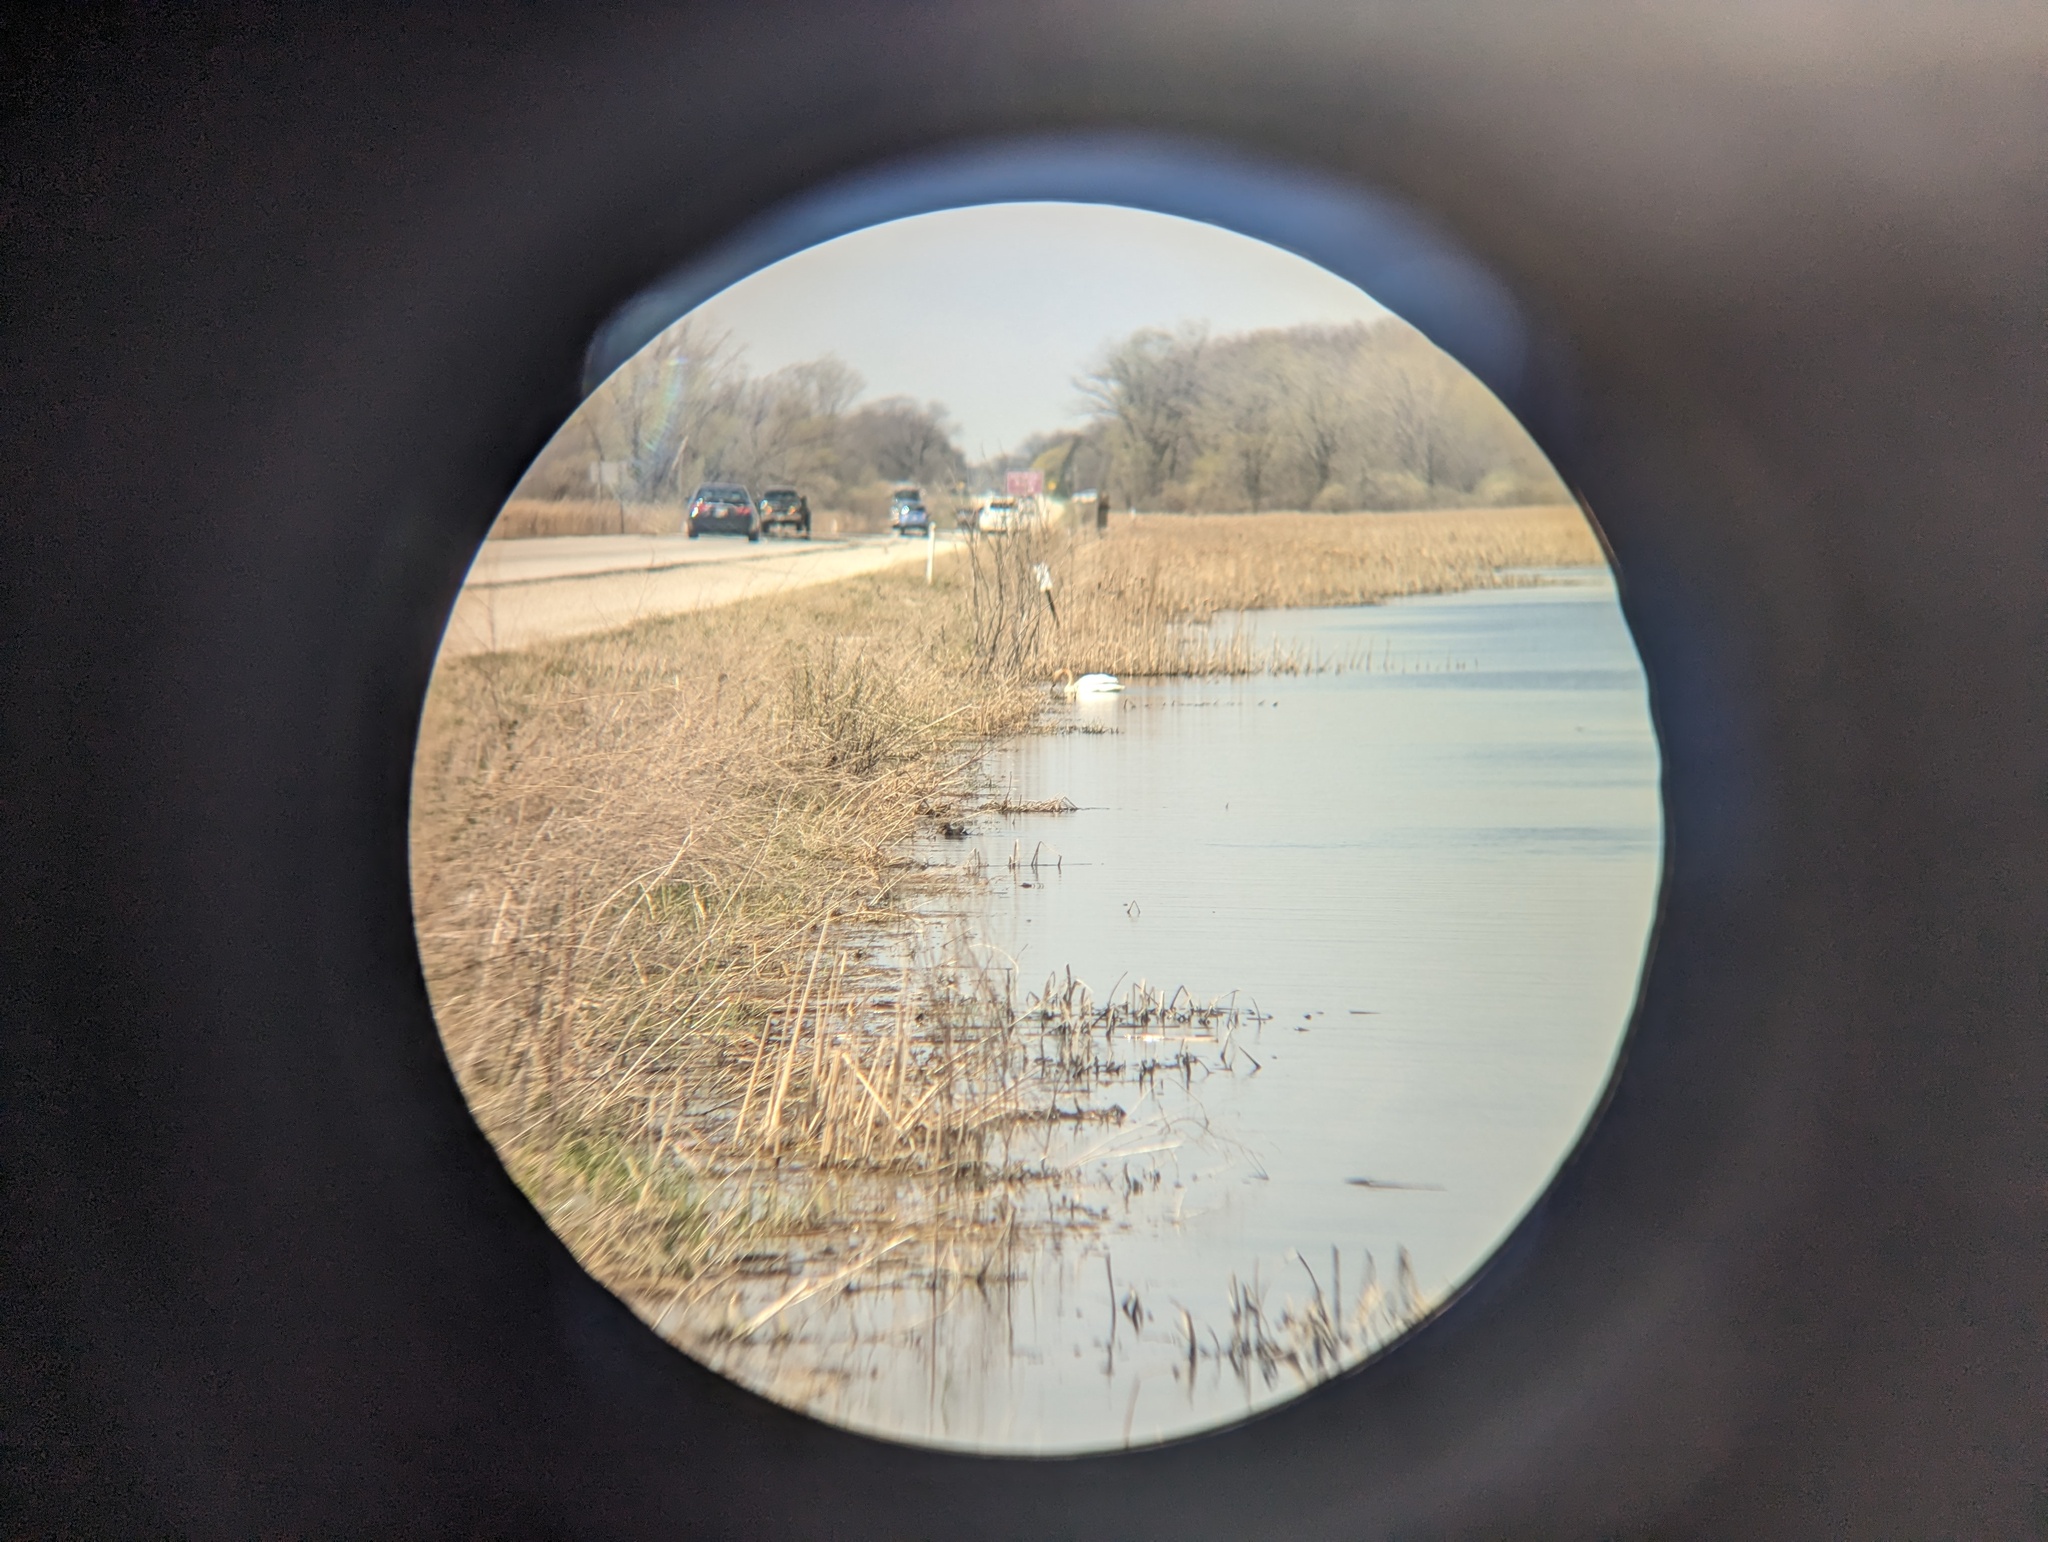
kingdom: Animalia
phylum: Chordata
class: Aves
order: Anseriformes
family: Anatidae
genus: Cygnus
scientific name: Cygnus buccinator
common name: Trumpeter swan
